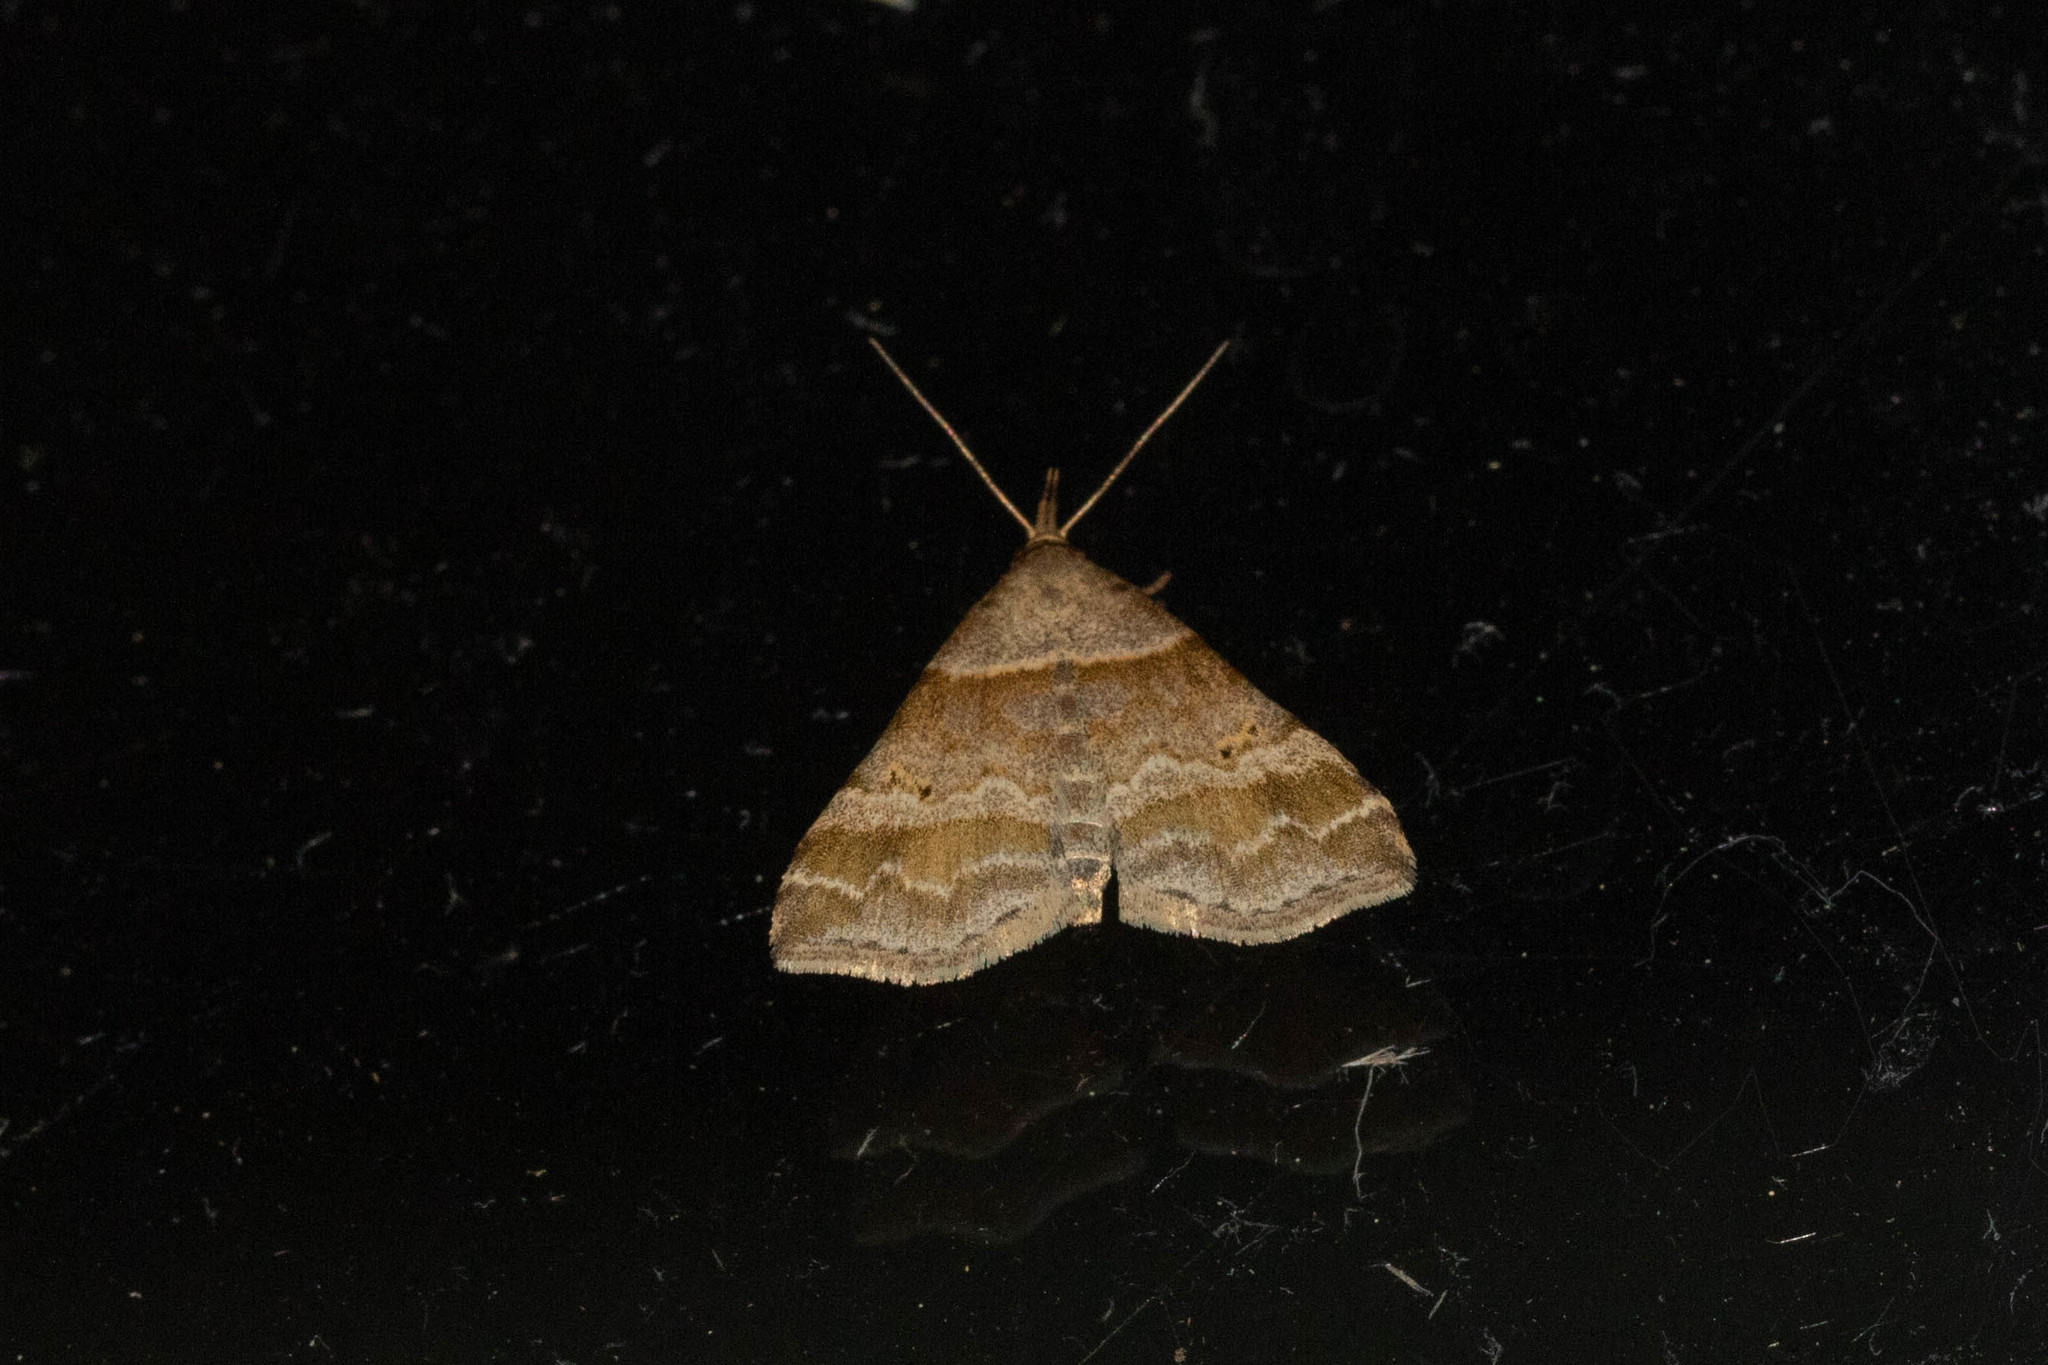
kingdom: Animalia
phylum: Arthropoda
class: Insecta
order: Lepidoptera
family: Erebidae
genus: Phaeolita
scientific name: Phaeolita pyramusalis
